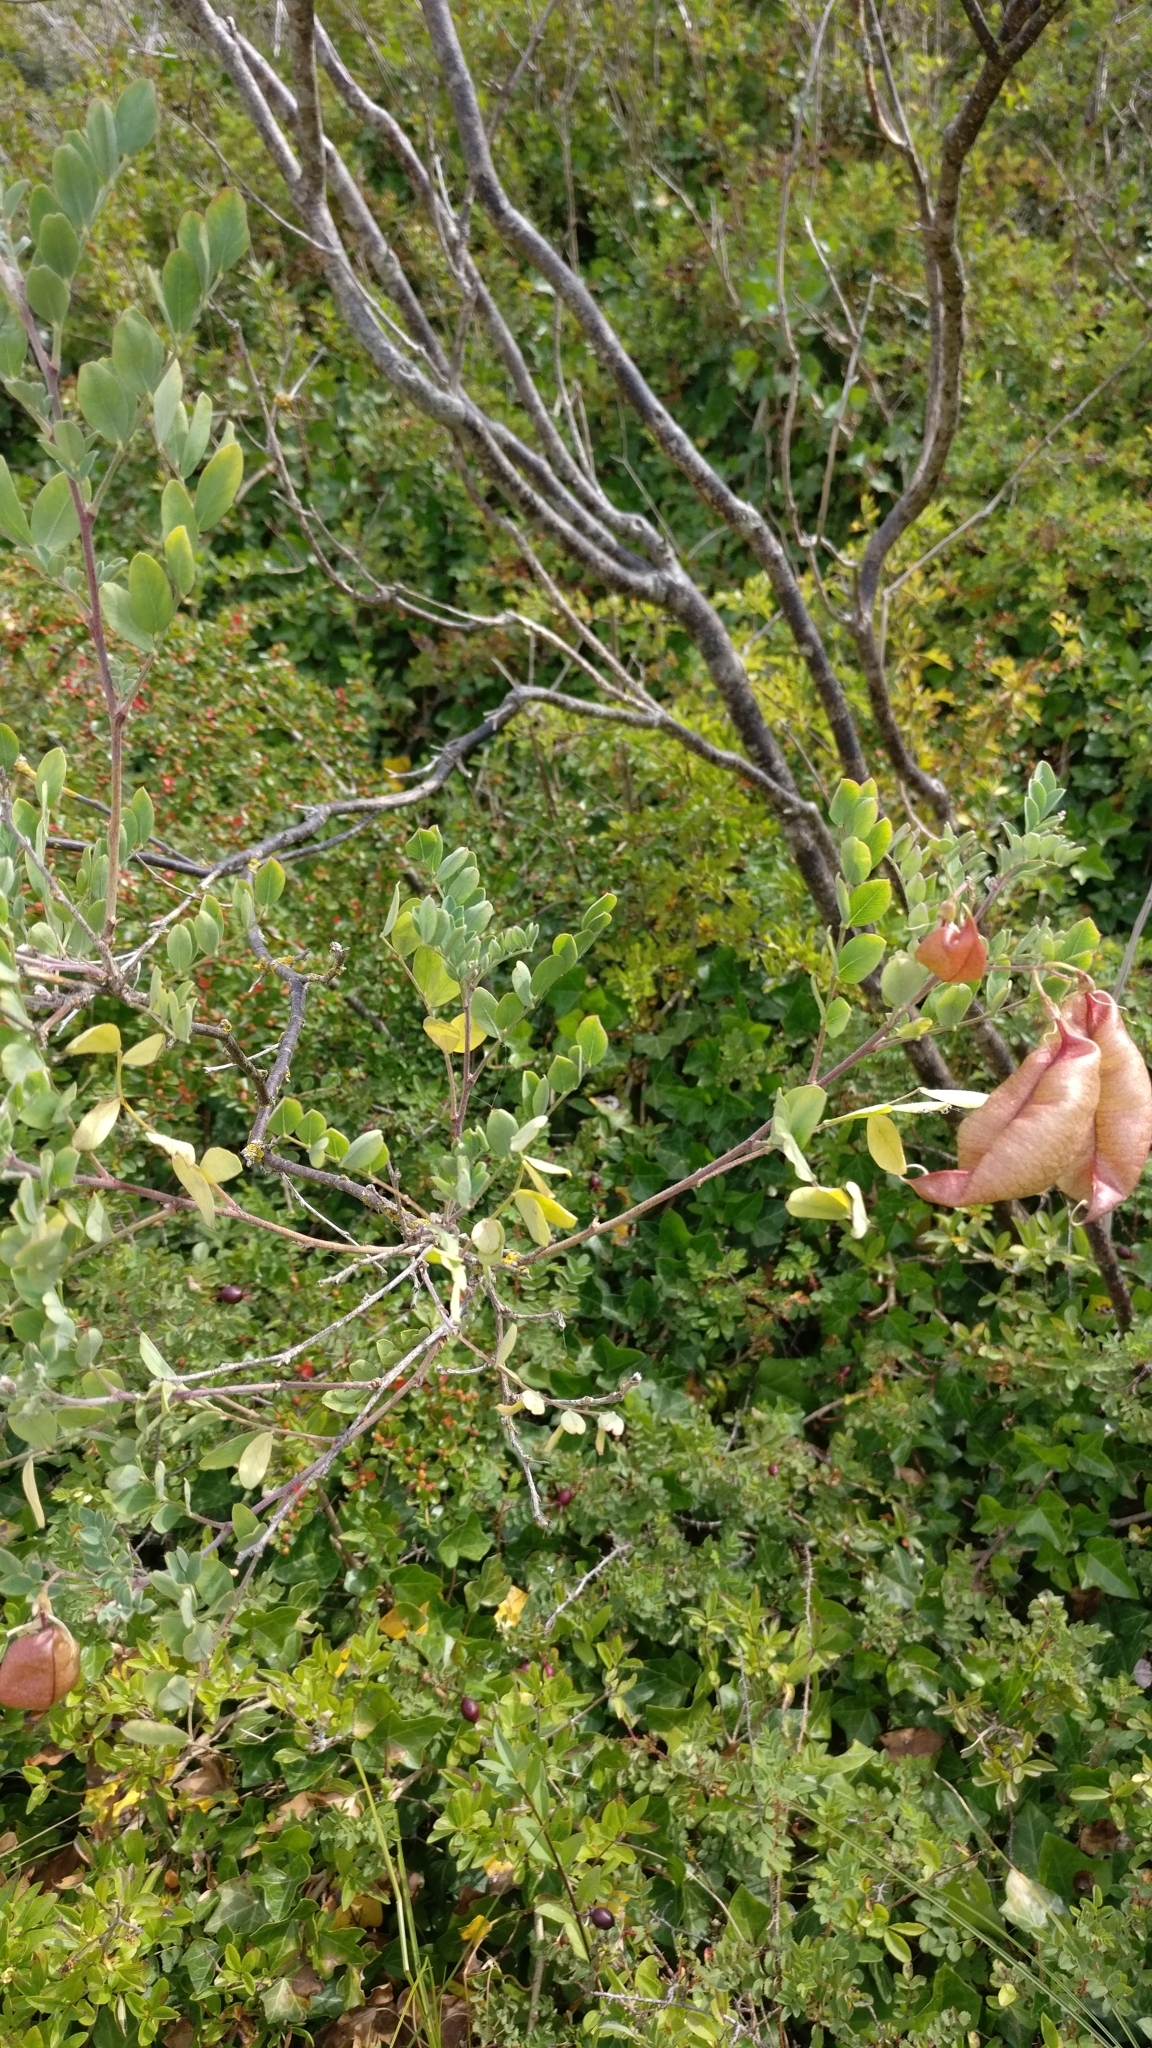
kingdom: Plantae
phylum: Tracheophyta
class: Magnoliopsida
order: Fabales
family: Fabaceae
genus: Colutea
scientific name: Colutea arborescens
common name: Bladder-senna
